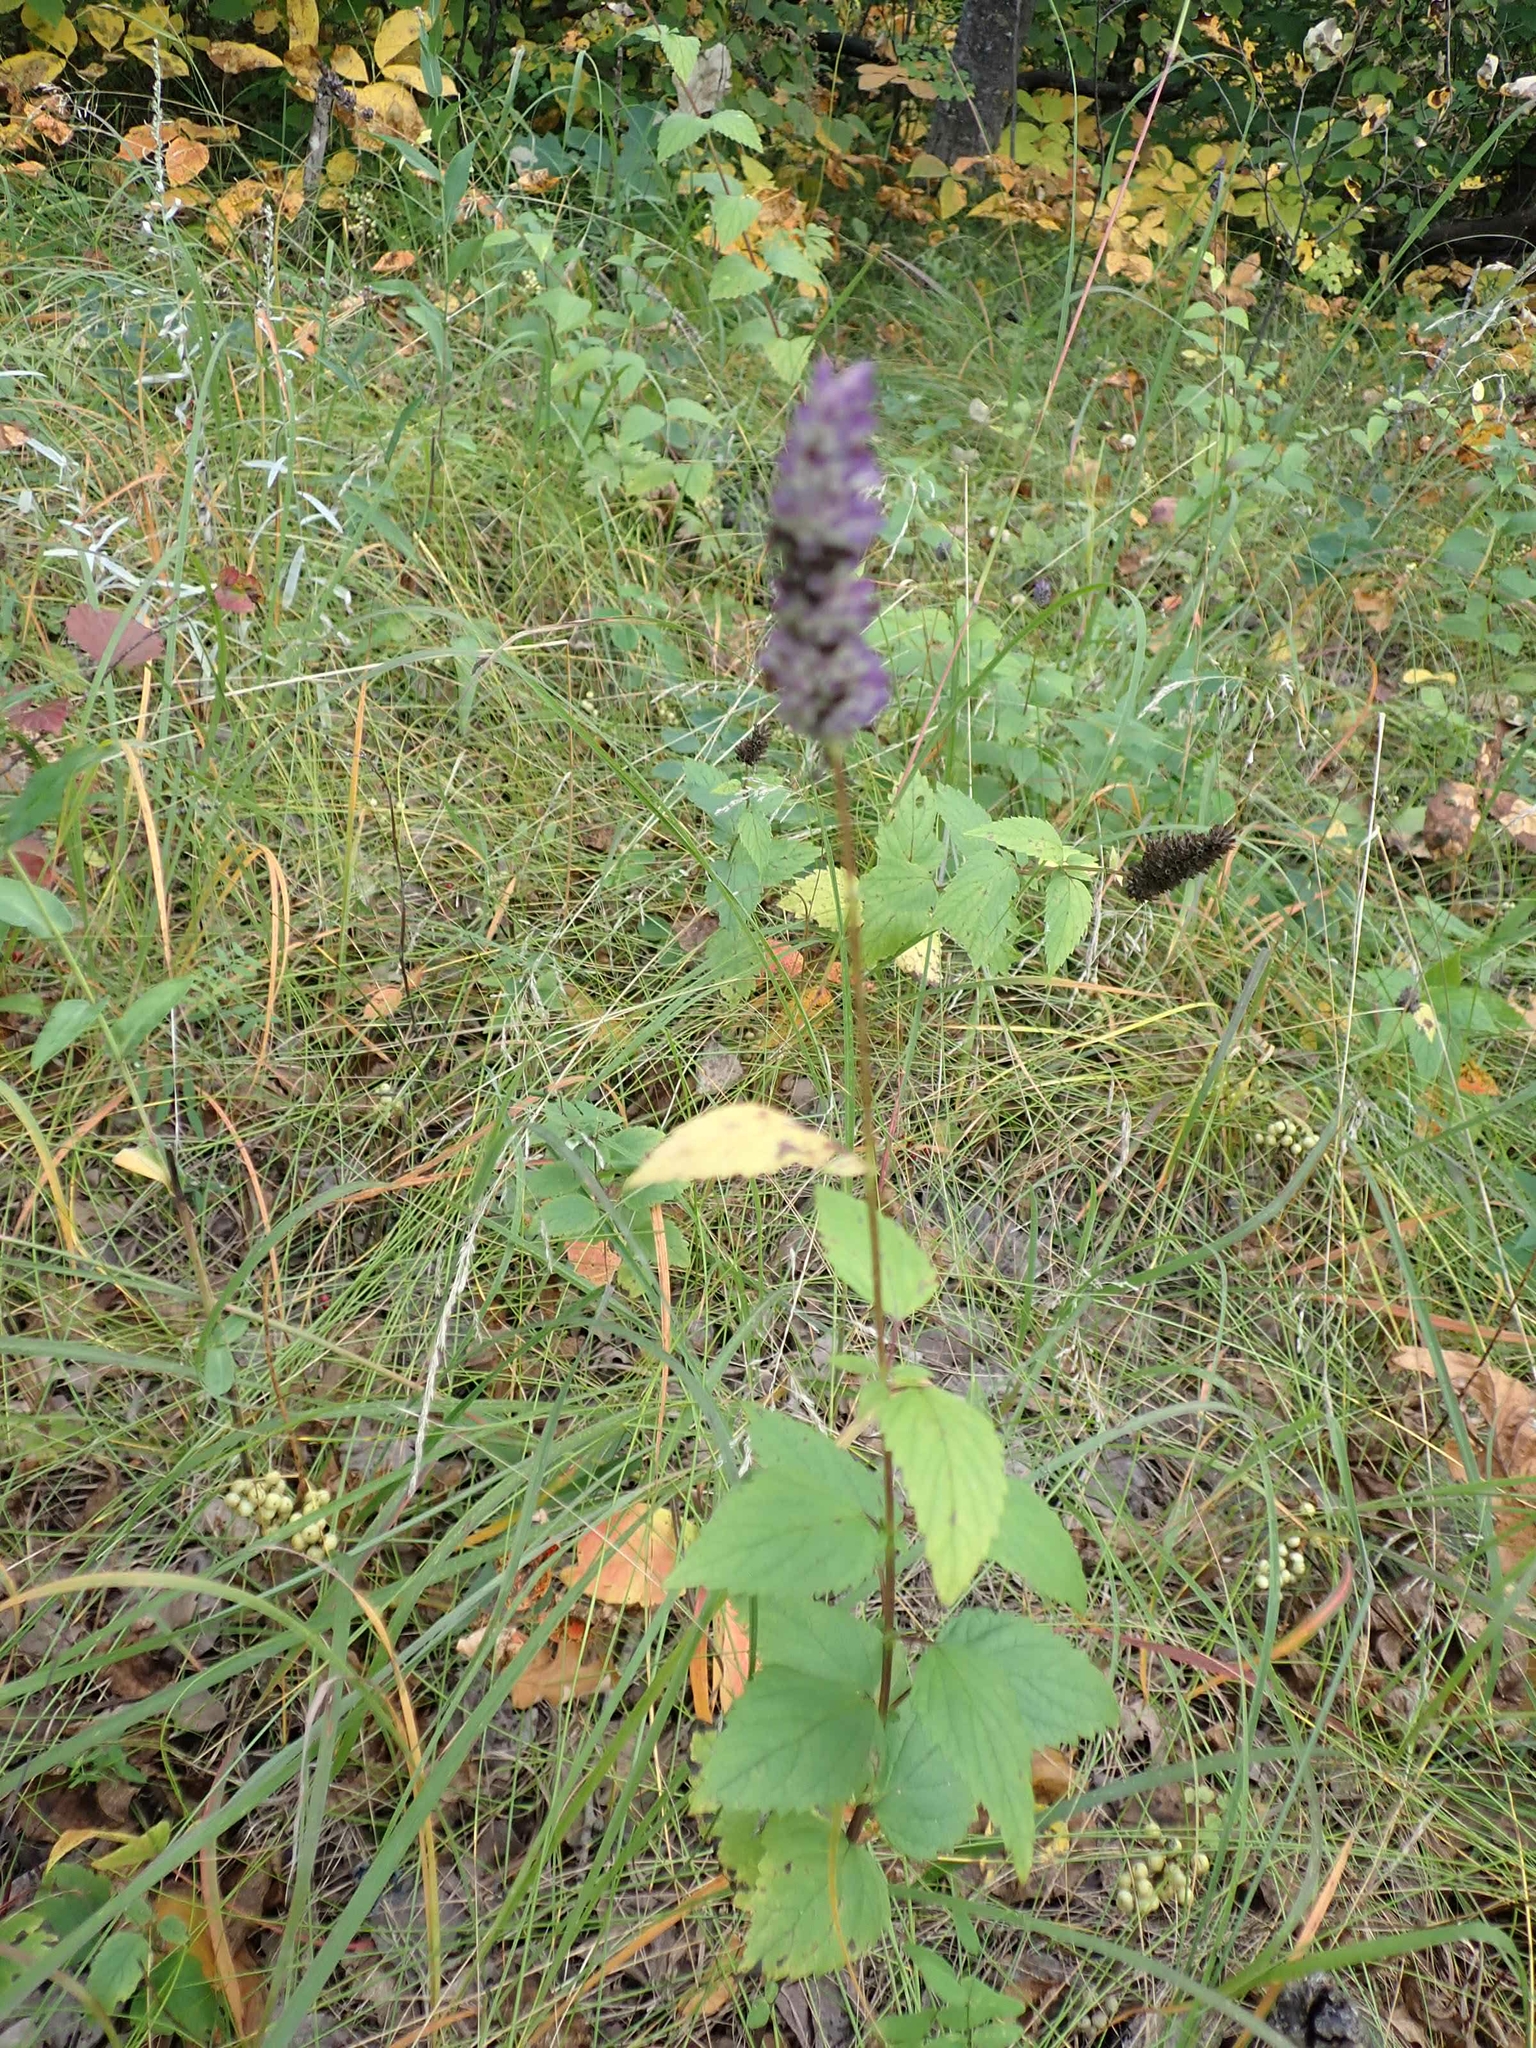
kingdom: Plantae
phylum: Tracheophyta
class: Magnoliopsida
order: Lamiales
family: Lamiaceae
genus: Agastache
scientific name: Agastache foeniculum
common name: Anise hyssop
